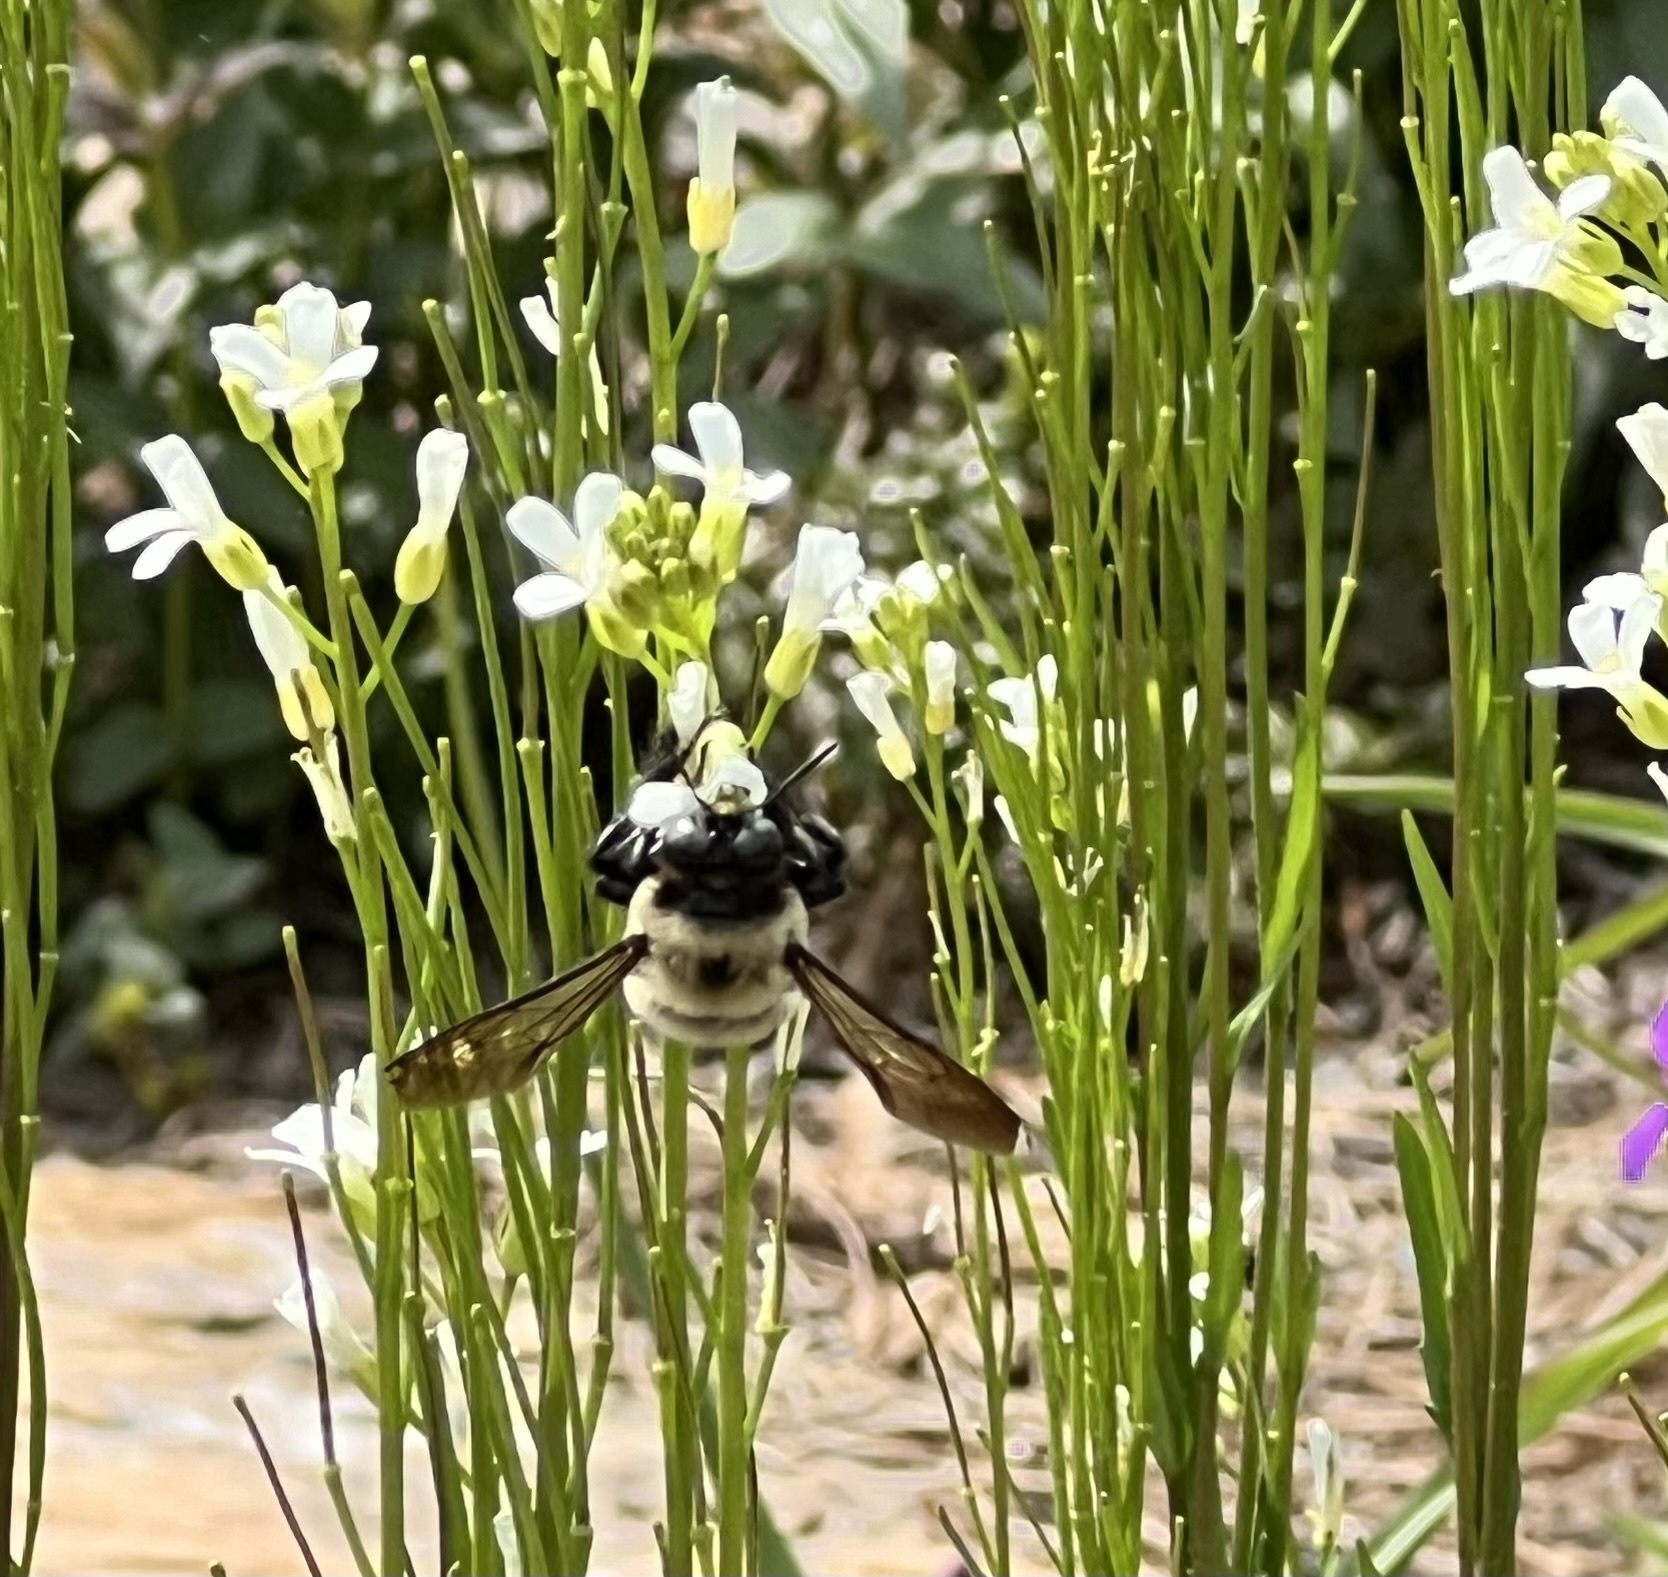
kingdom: Animalia
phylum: Arthropoda
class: Insecta
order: Hymenoptera
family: Apidae
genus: Xylocopa
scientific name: Xylocopa virginica
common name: Carpenter bee
